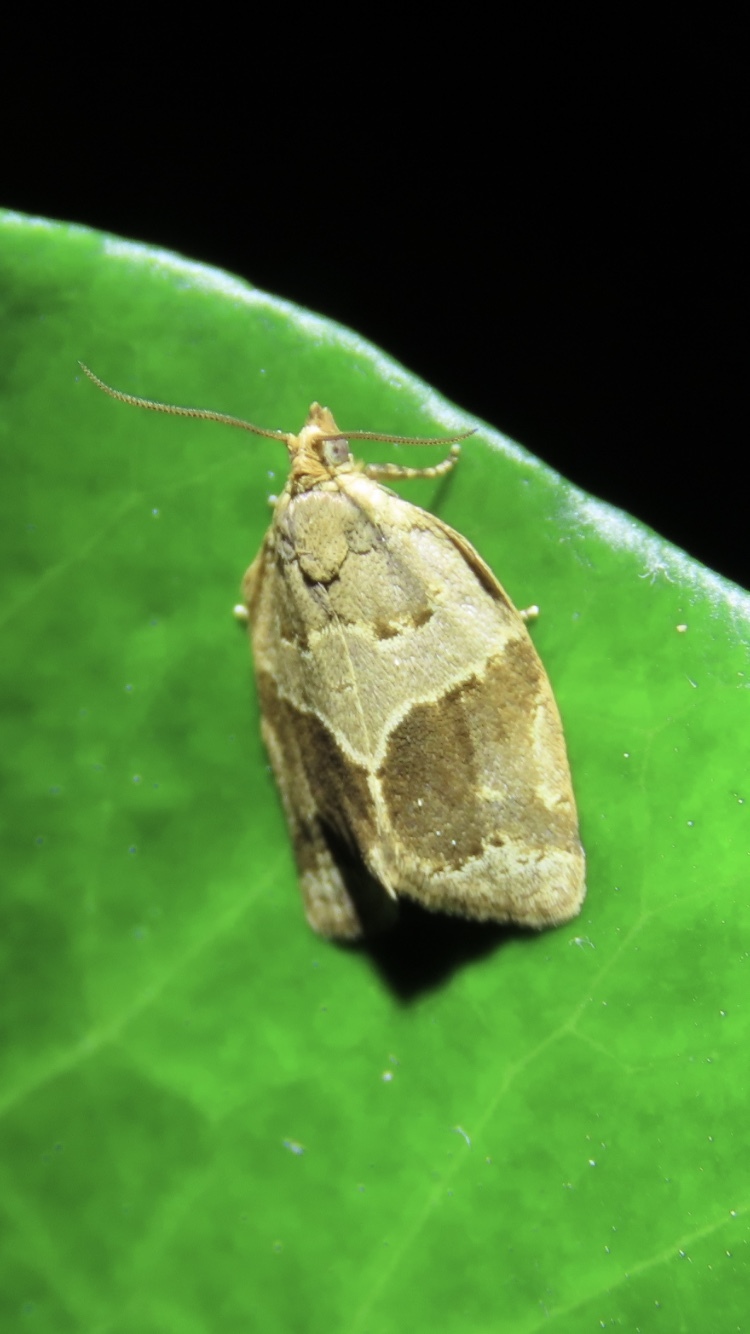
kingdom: Animalia
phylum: Arthropoda
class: Insecta
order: Lepidoptera
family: Tortricidae
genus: Clepsis
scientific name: Clepsis dumicolana
